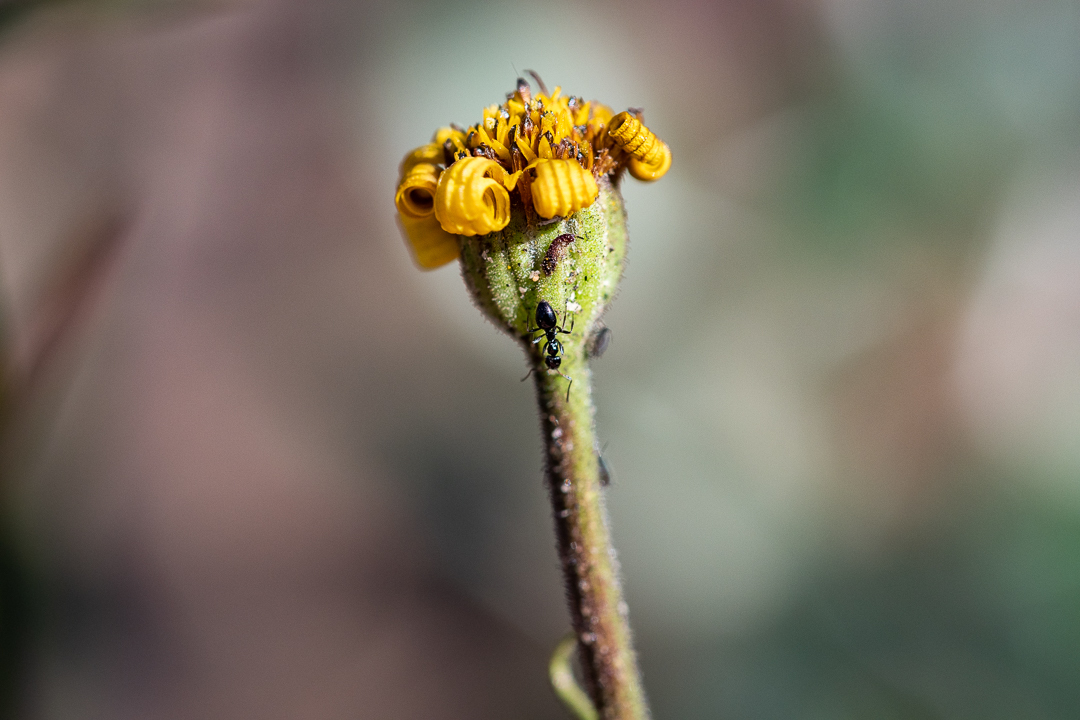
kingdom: Plantae
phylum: Tracheophyta
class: Magnoliopsida
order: Asterales
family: Asteraceae
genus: Osteospermum
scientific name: Osteospermum tomentosum
